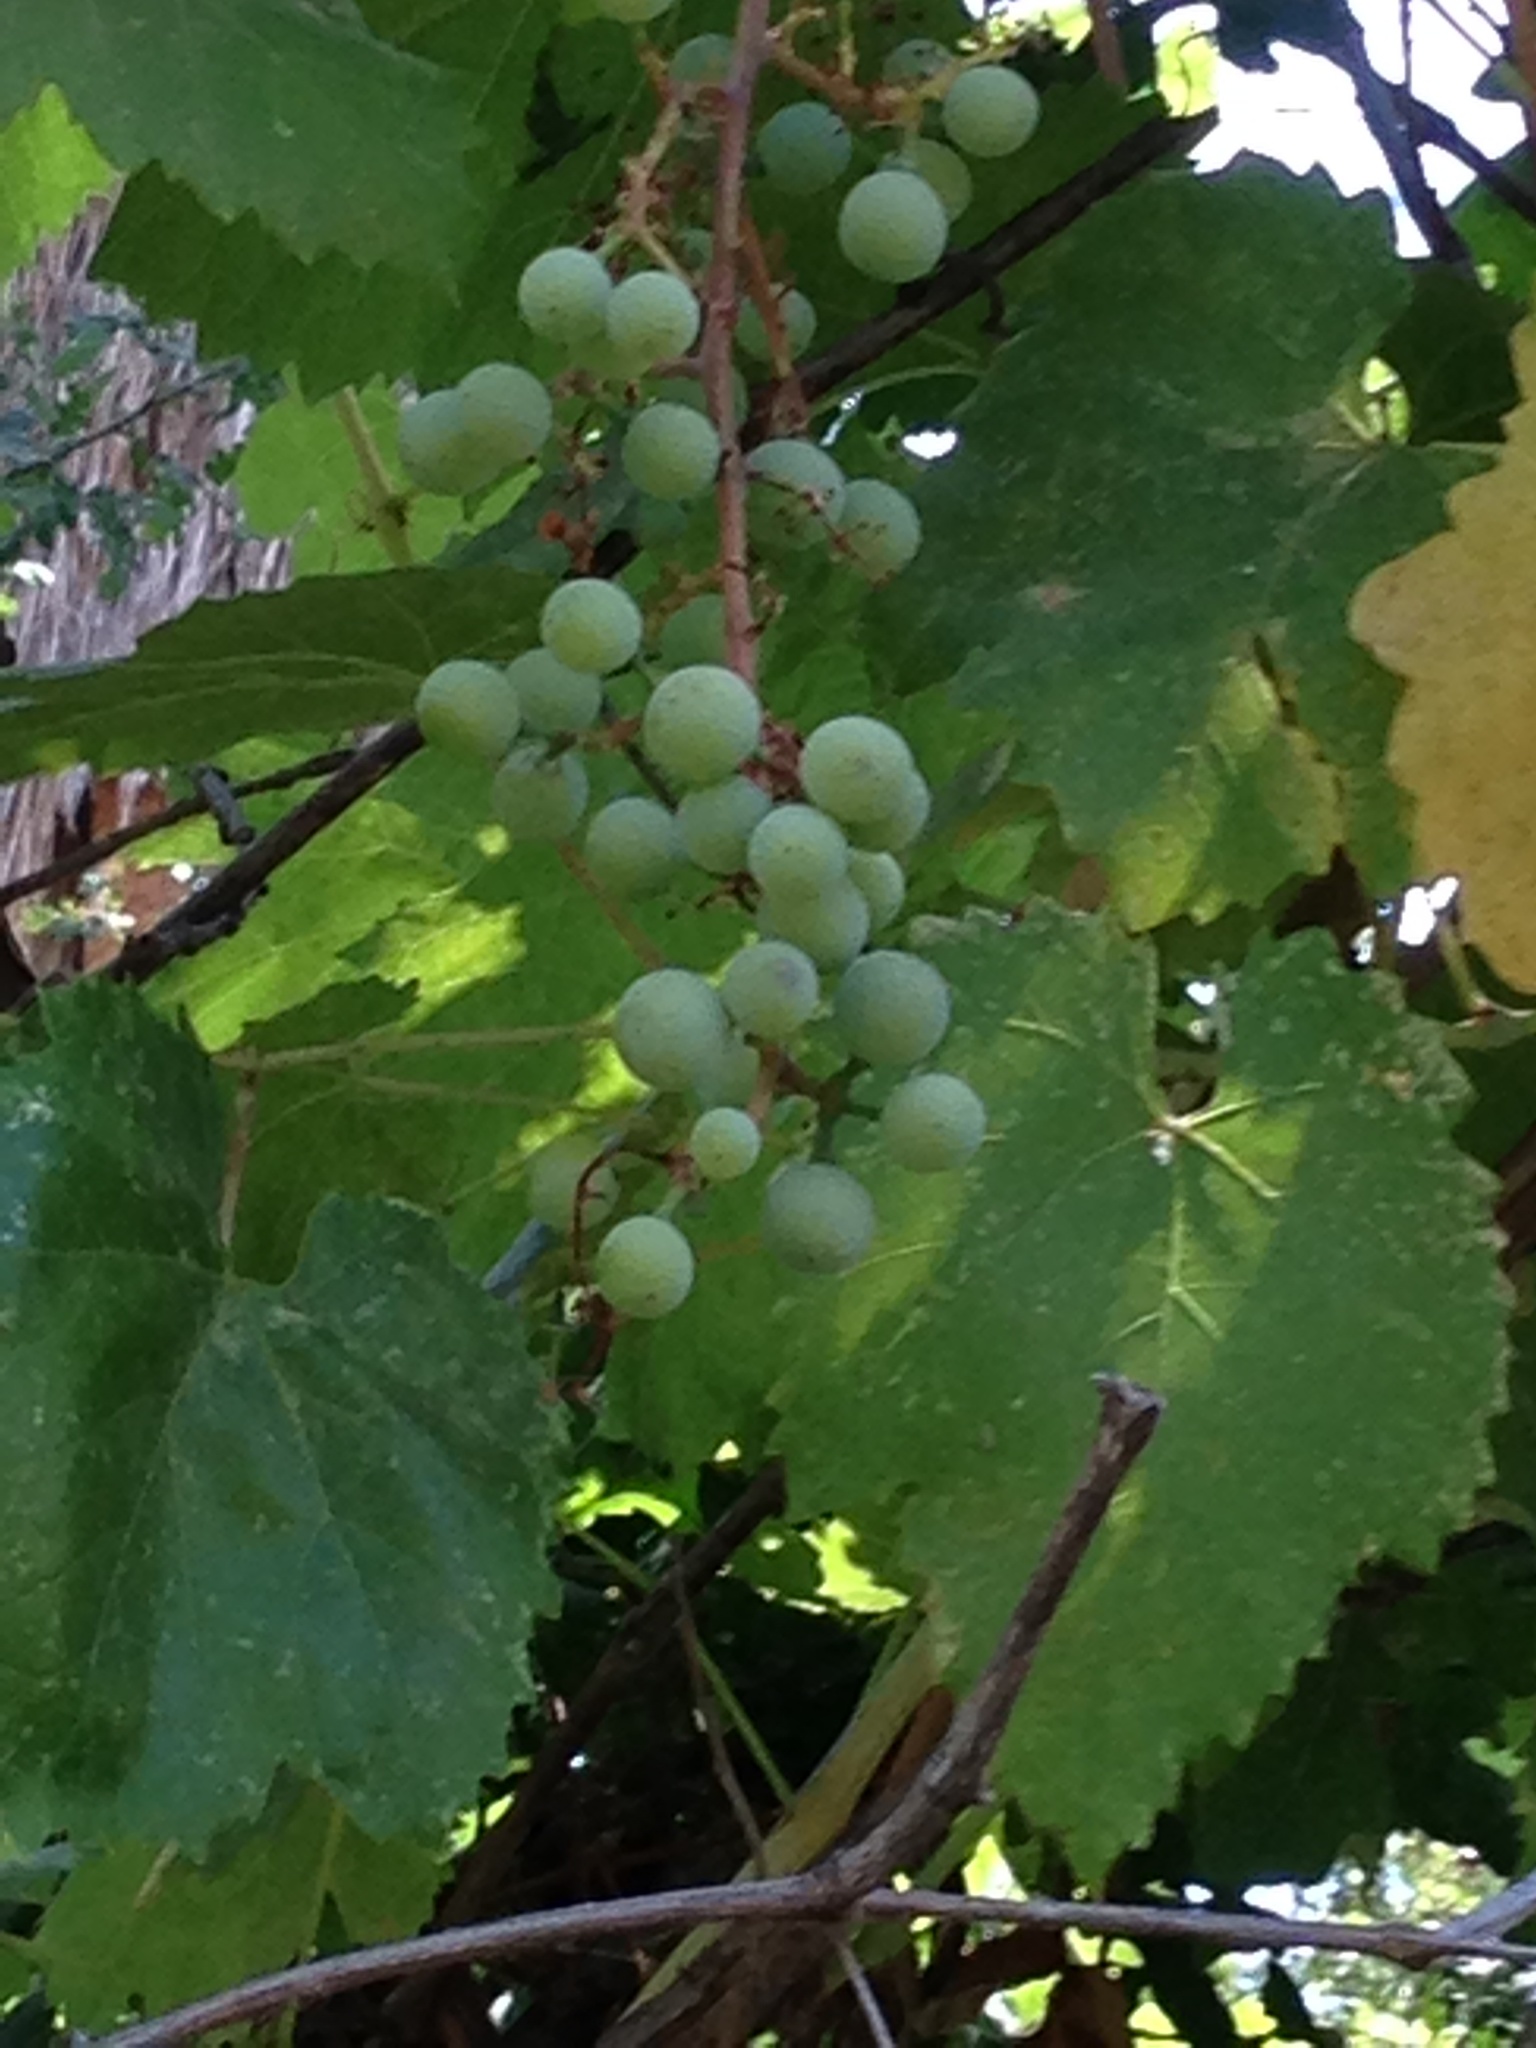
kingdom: Plantae
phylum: Tracheophyta
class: Magnoliopsida
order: Vitales
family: Vitaceae
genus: Vitis
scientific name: Vitis californica
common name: California wild grape
